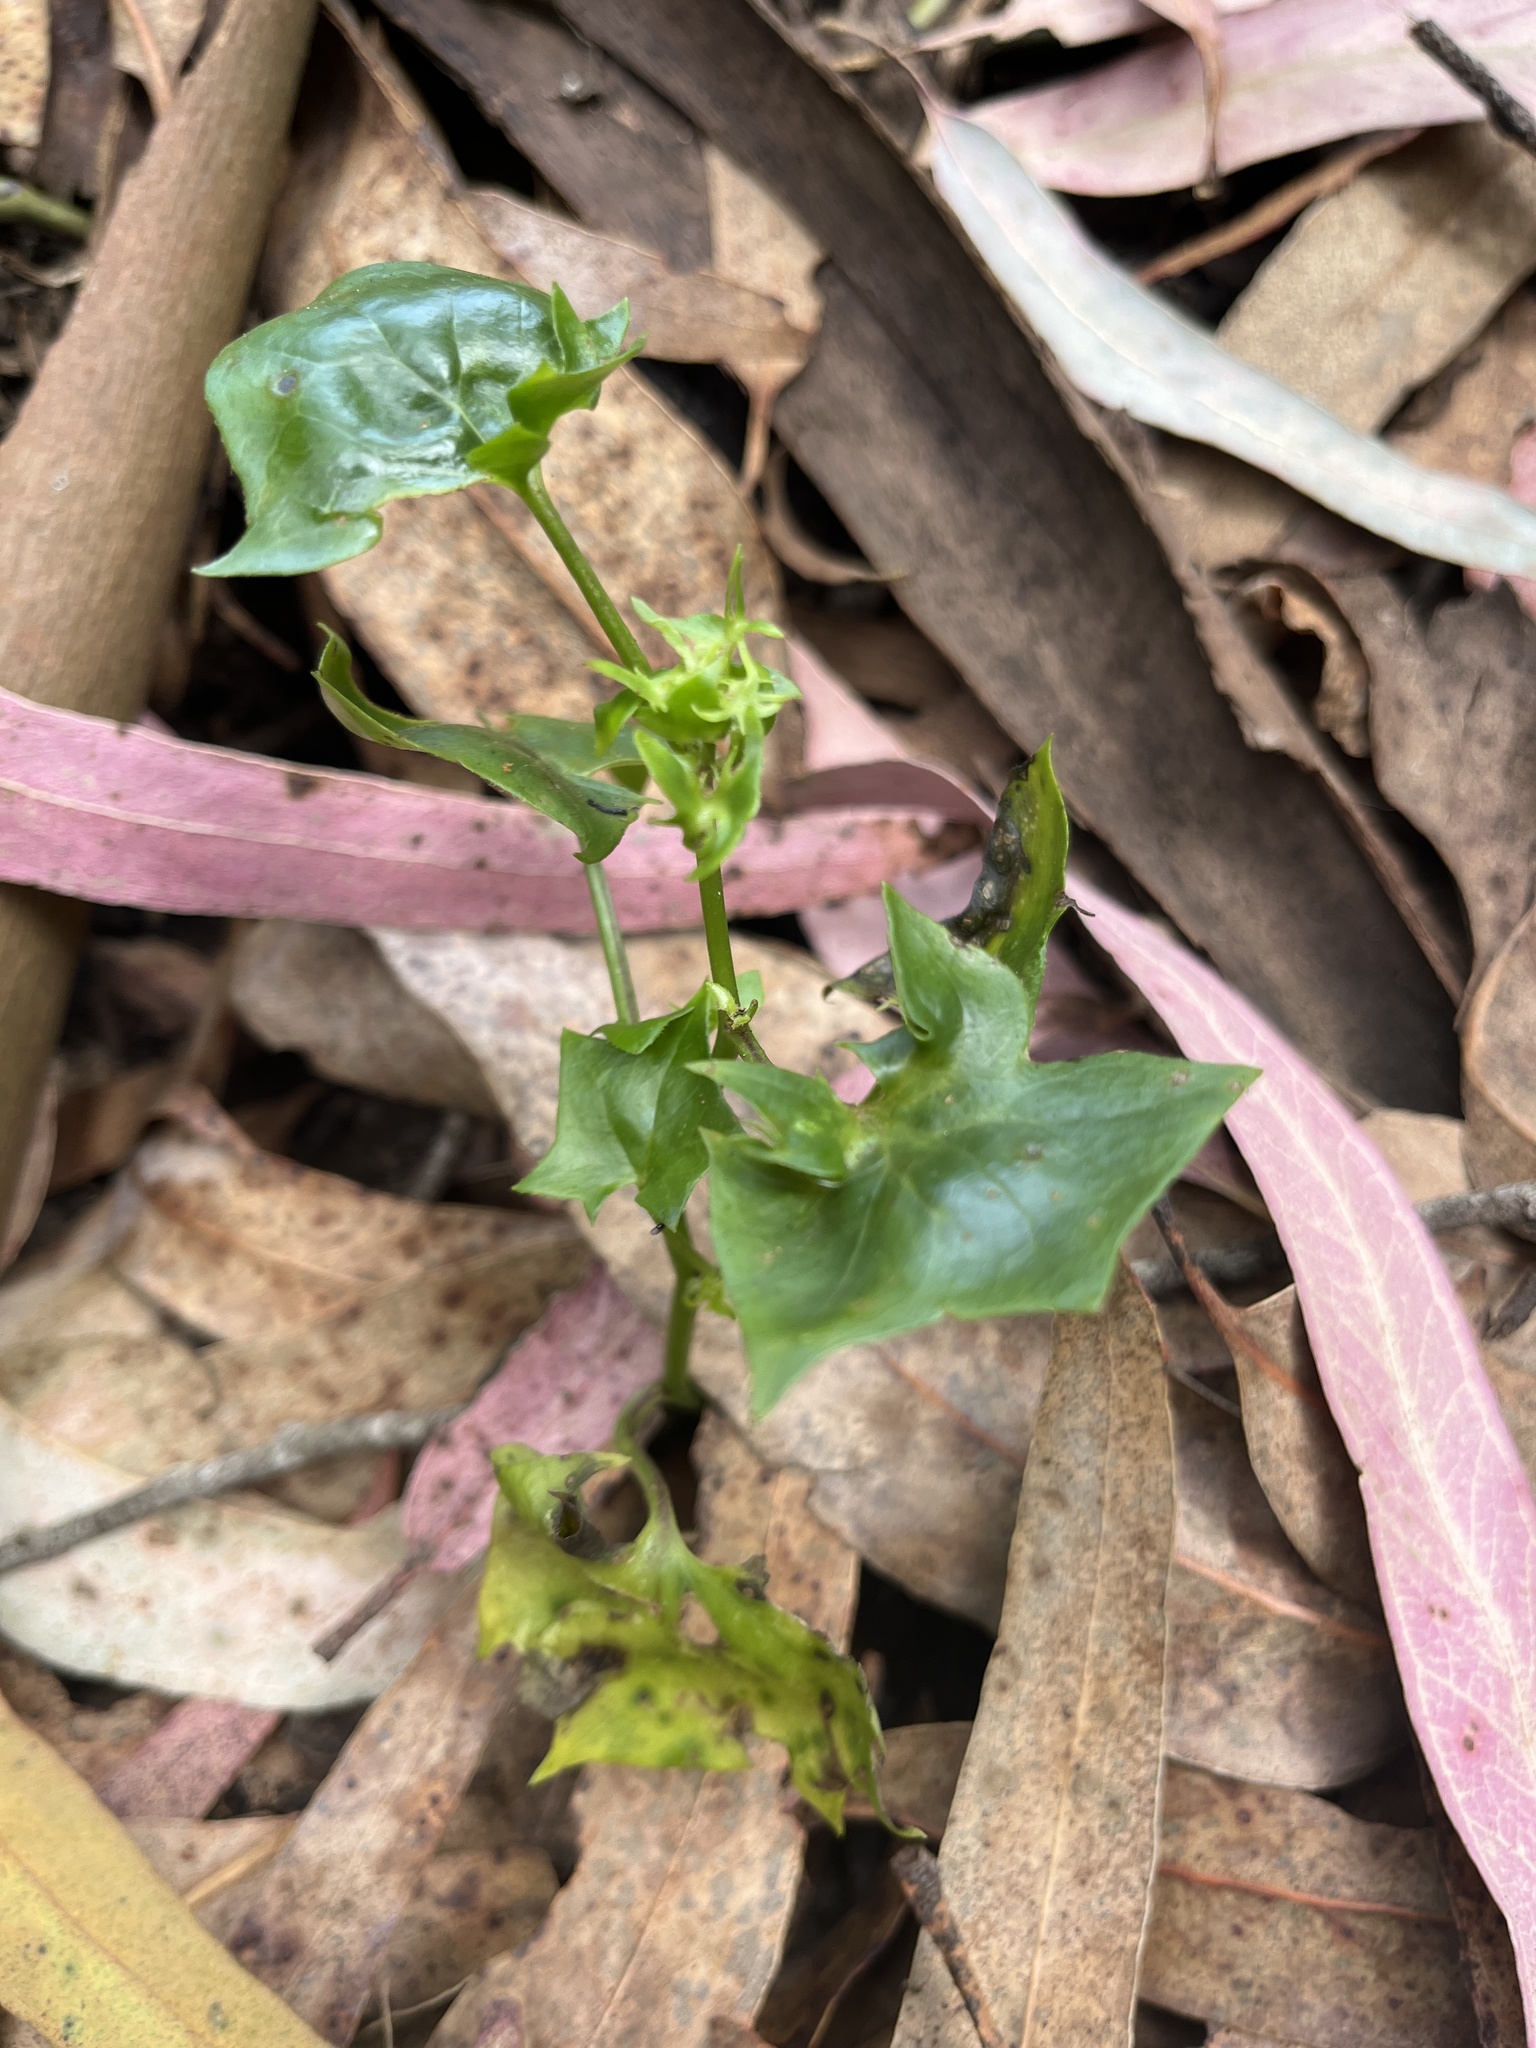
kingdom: Plantae
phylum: Tracheophyta
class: Magnoliopsida
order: Asterales
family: Asteraceae
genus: Delairea
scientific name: Delairea odorata
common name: Cape-ivy
